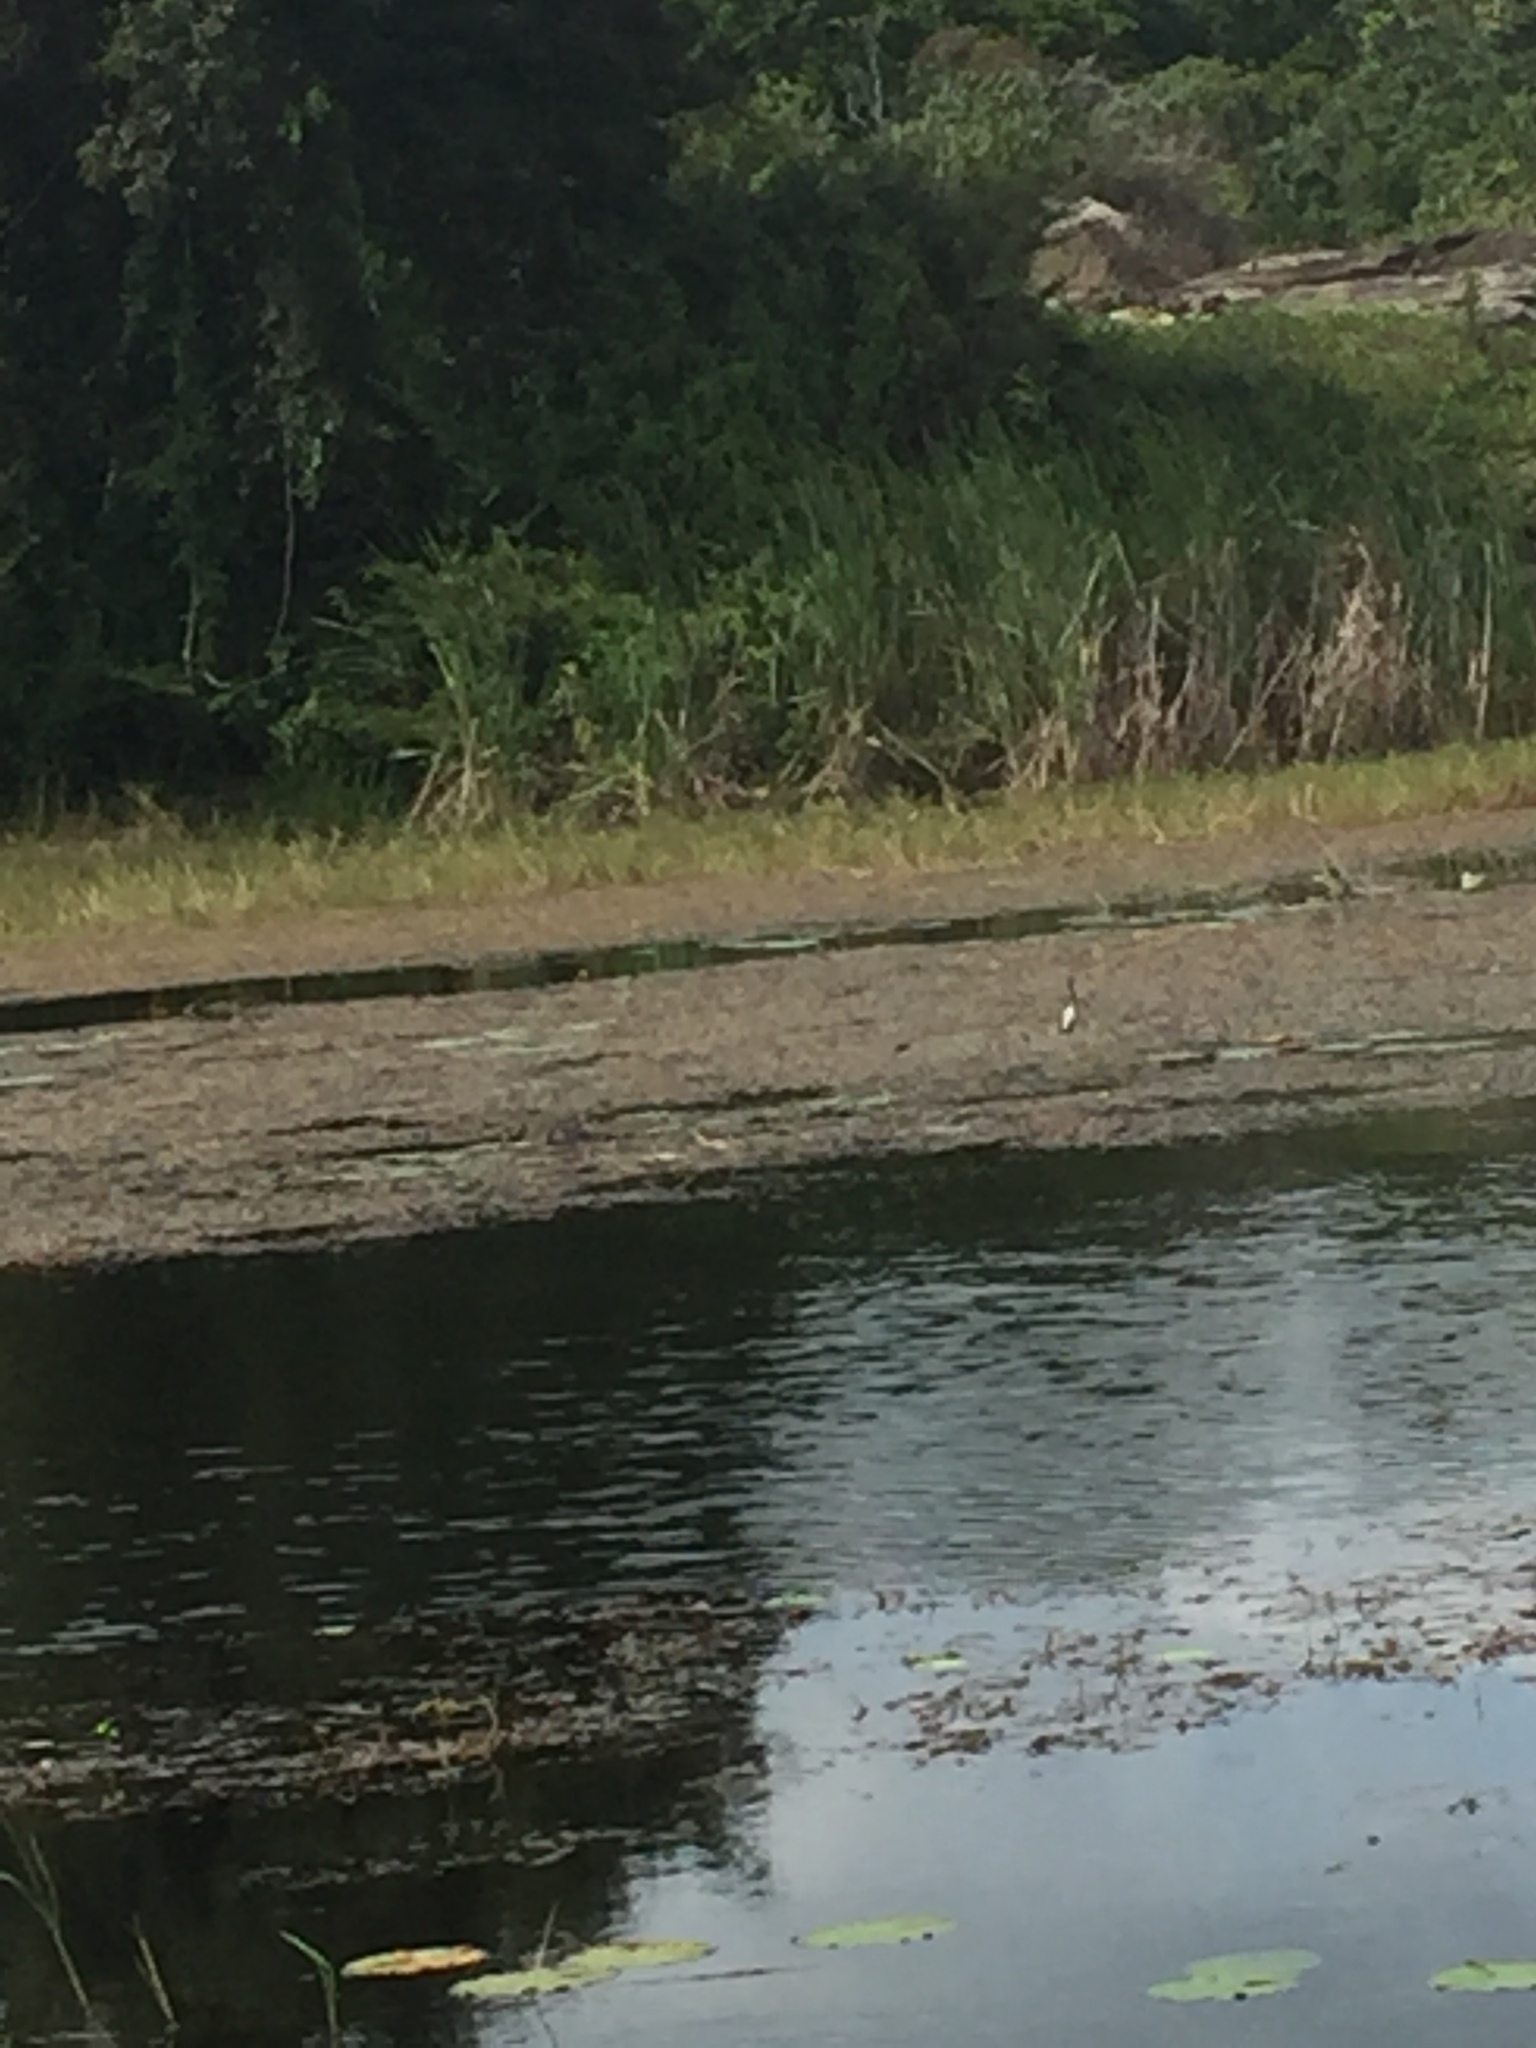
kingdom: Animalia
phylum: Chordata
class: Aves
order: Charadriiformes
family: Jacanidae
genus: Hydrophasianus
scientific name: Hydrophasianus chirurgus
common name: Pheasant-tailed jacana
